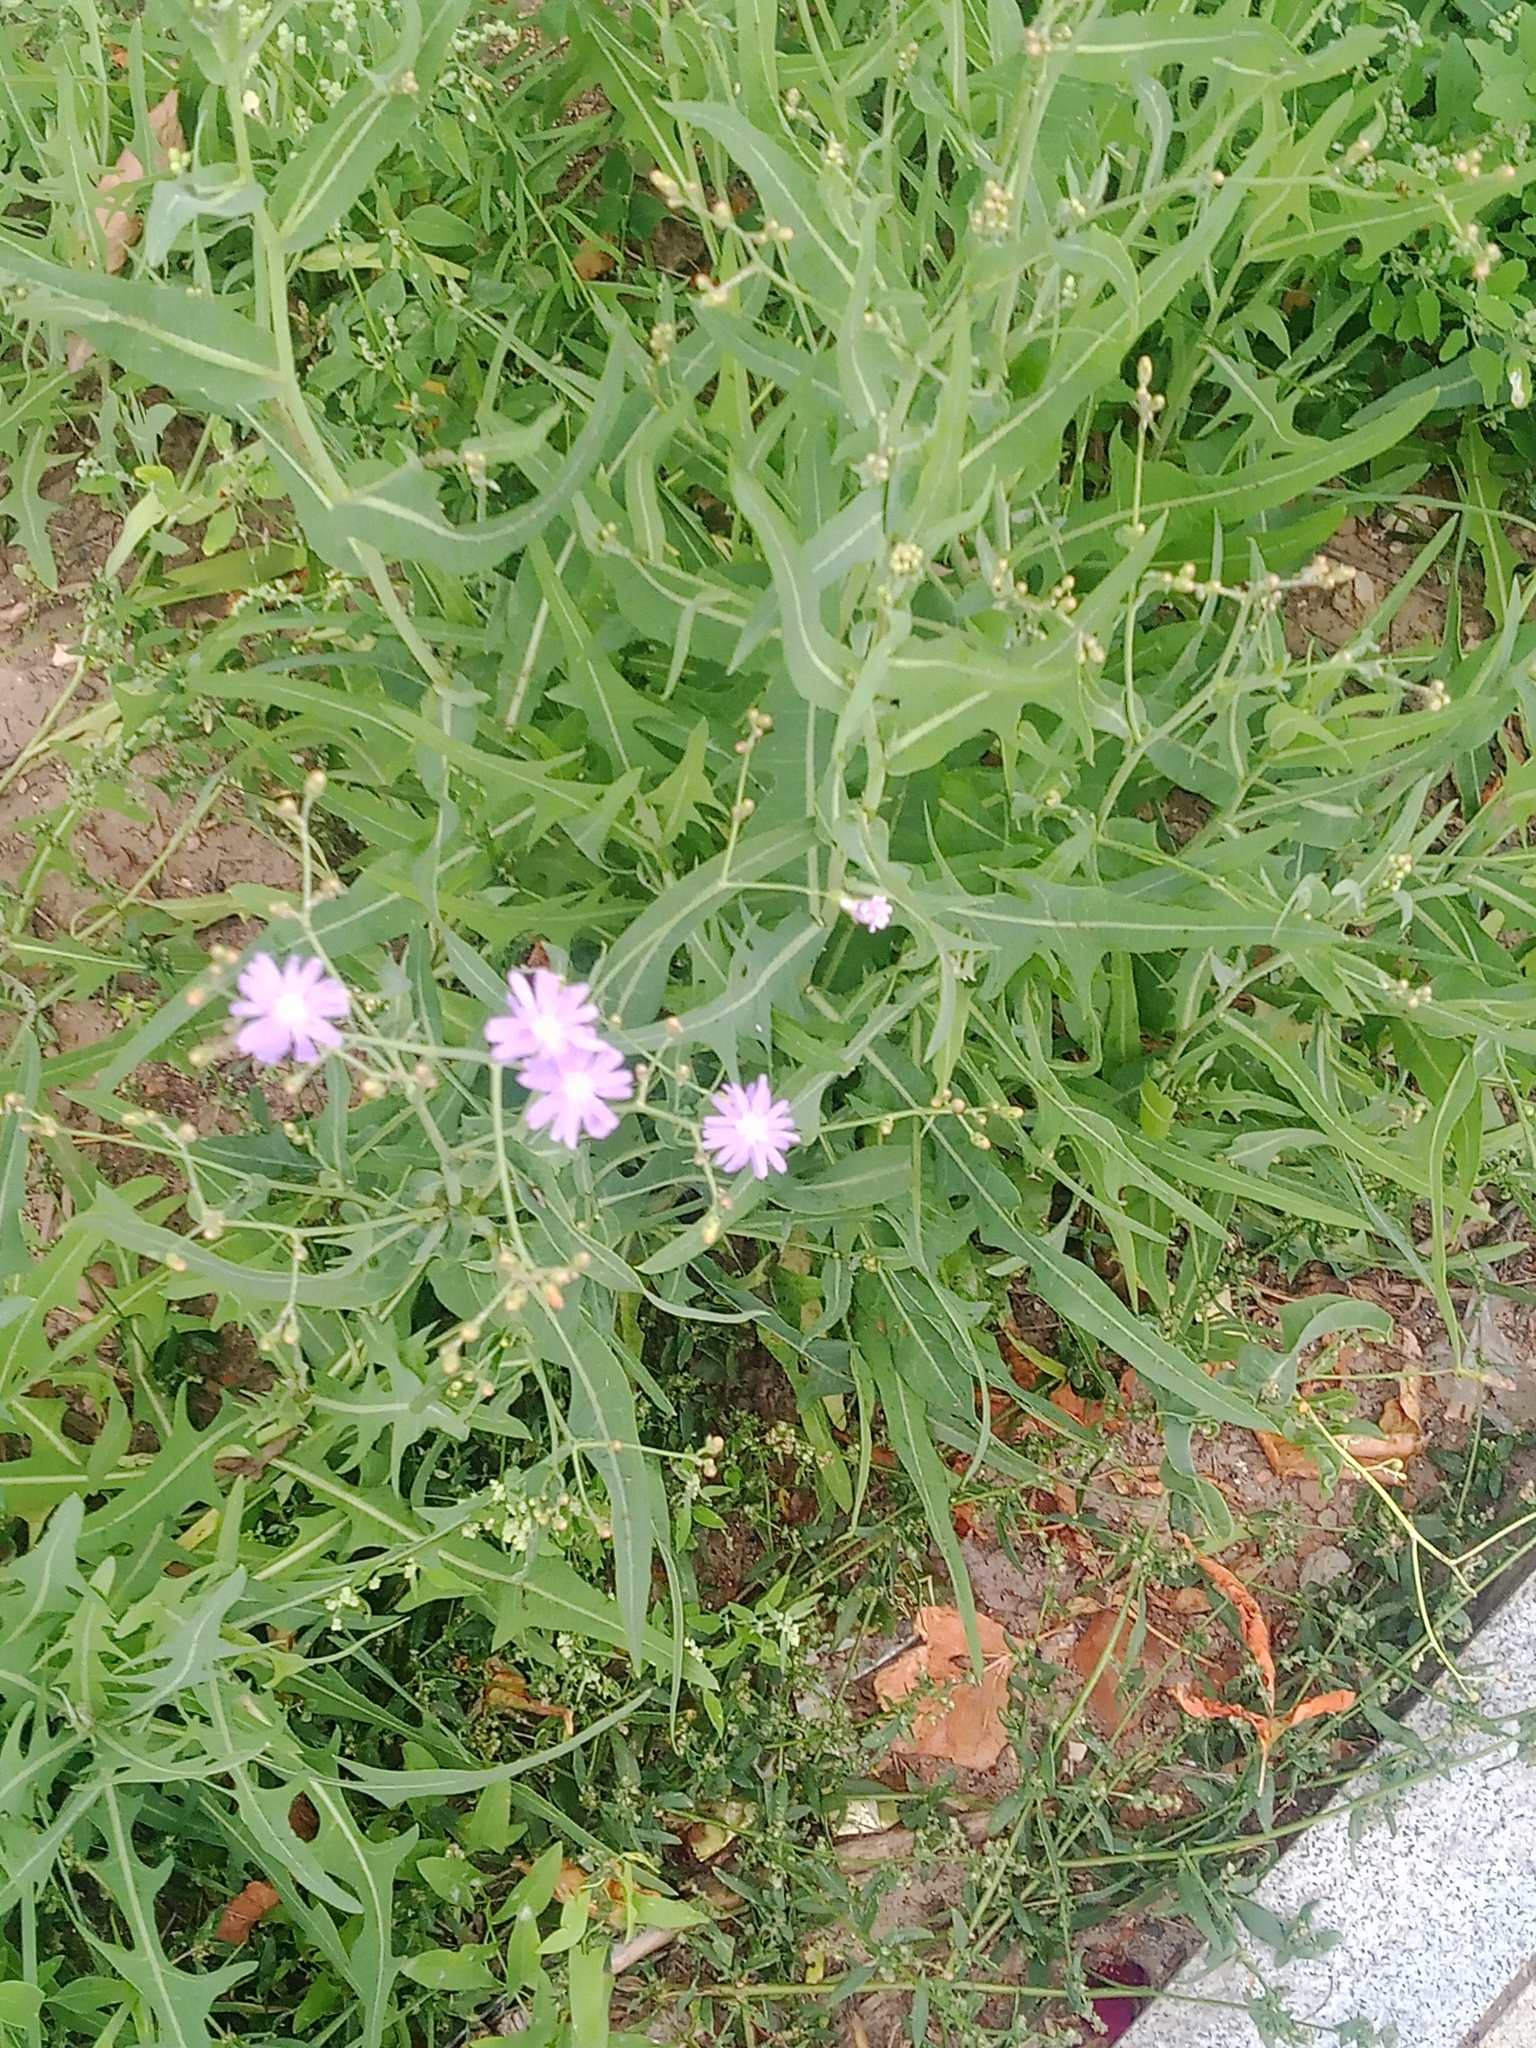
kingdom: Plantae
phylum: Tracheophyta
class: Magnoliopsida
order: Asterales
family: Asteraceae
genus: Lactuca
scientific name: Lactuca tatarica
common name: Blue lettuce
